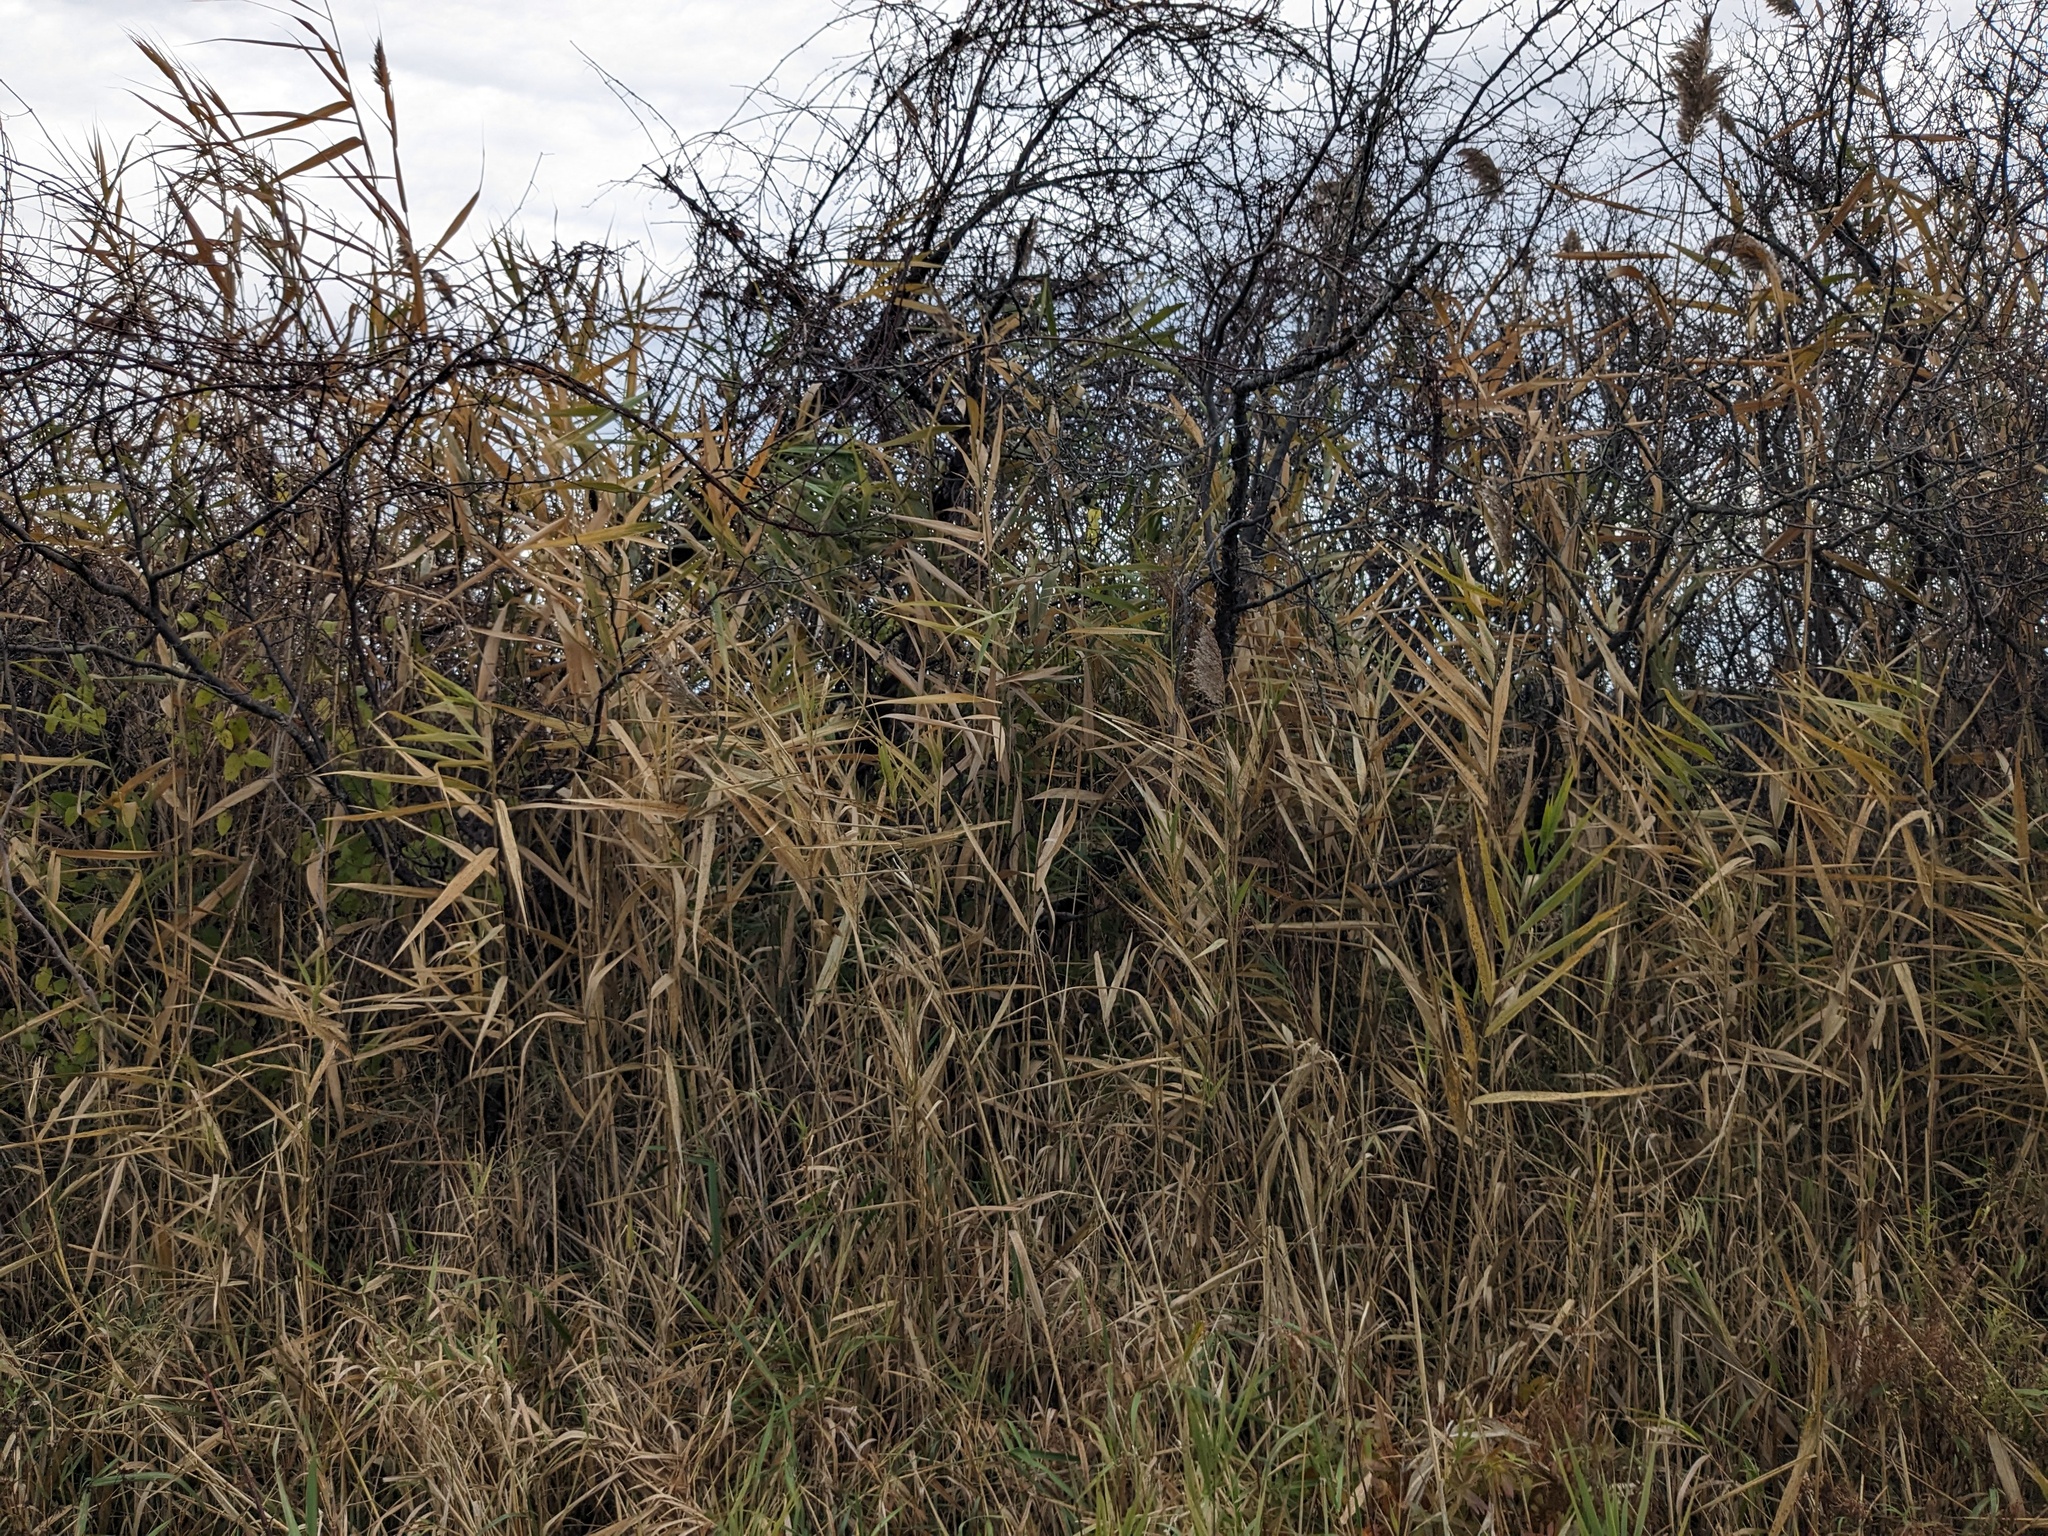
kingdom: Plantae
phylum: Tracheophyta
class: Liliopsida
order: Poales
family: Poaceae
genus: Phragmites
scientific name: Phragmites australis
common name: Common reed
